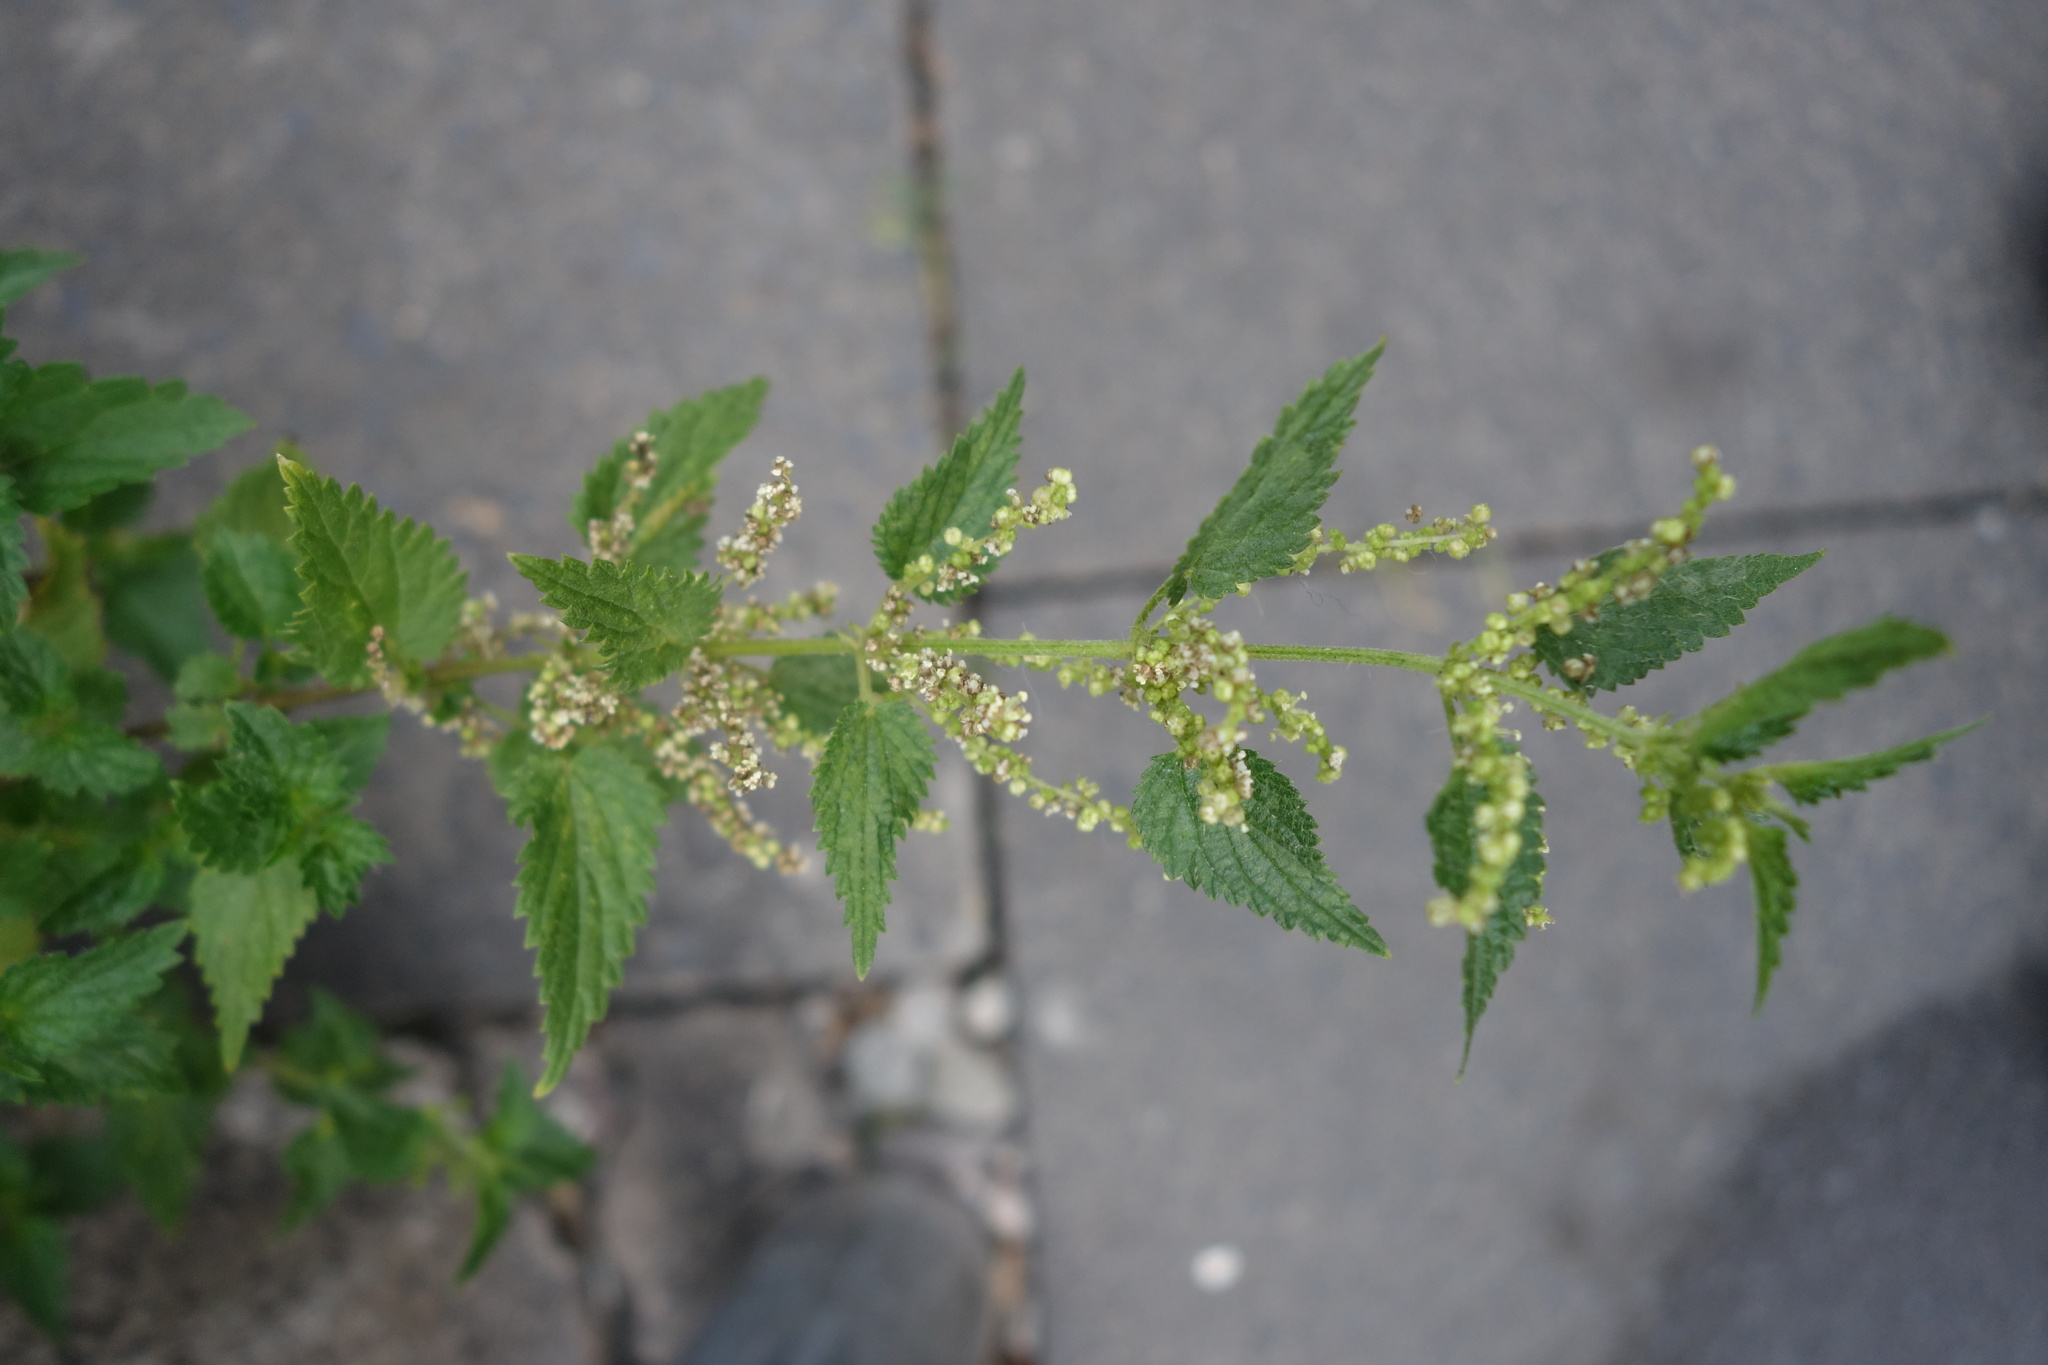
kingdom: Plantae
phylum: Tracheophyta
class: Magnoliopsida
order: Rosales
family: Urticaceae
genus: Urtica
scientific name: Urtica dioica
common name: Common nettle
